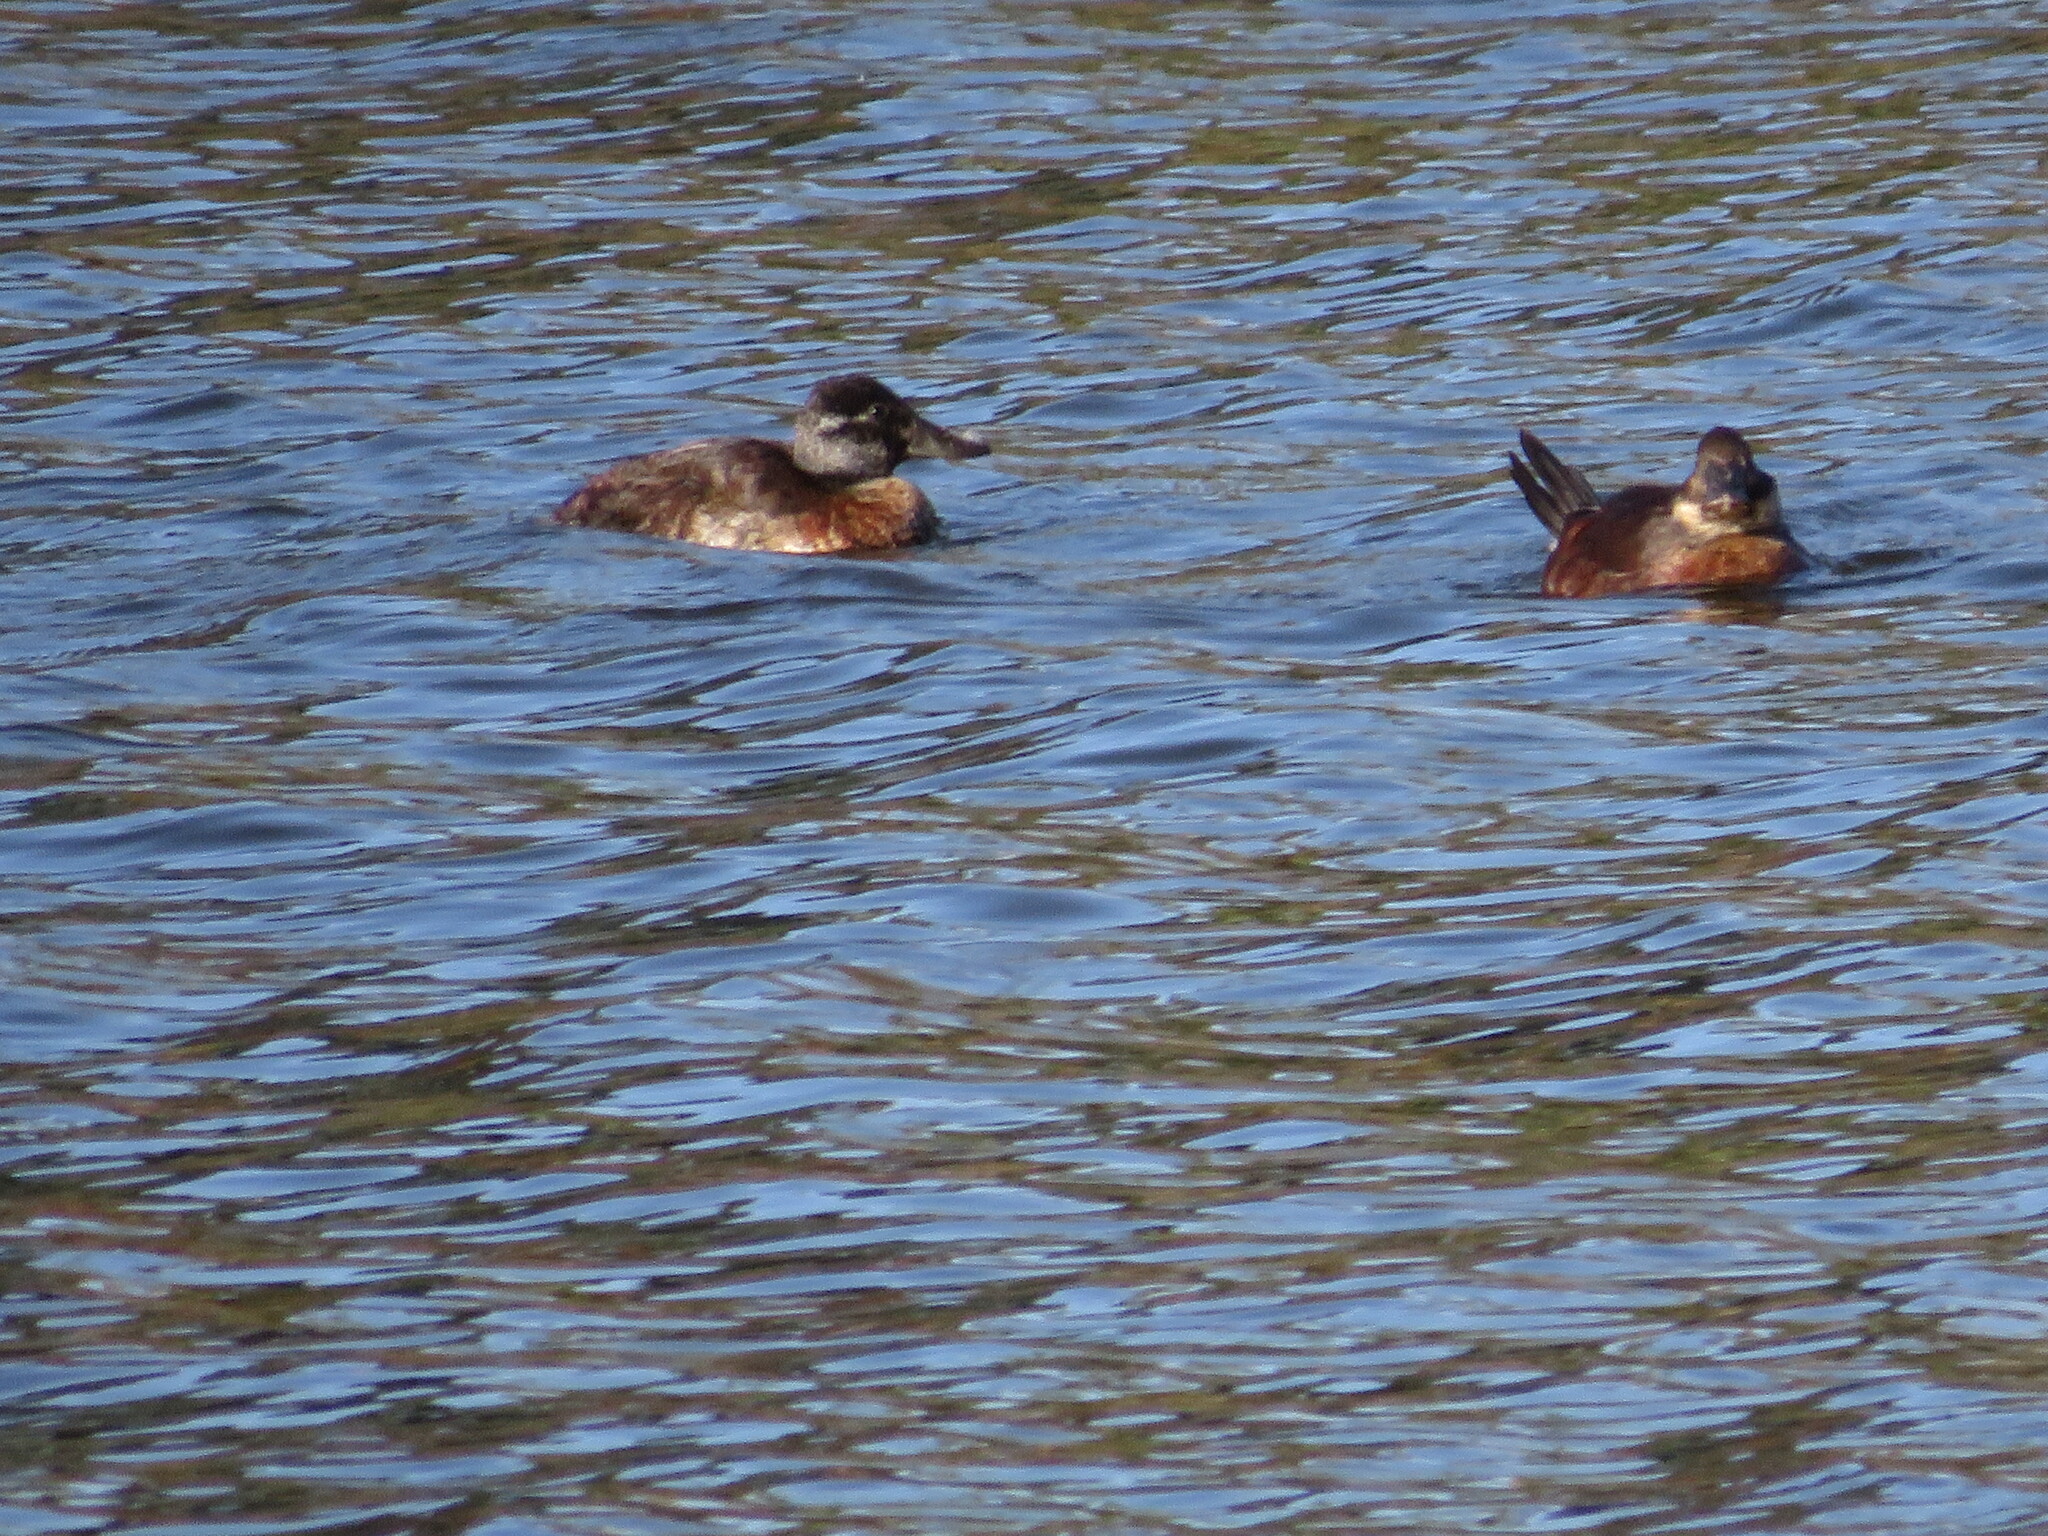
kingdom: Animalia
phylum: Chordata
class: Aves
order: Anseriformes
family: Anatidae
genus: Oxyura
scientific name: Oxyura vittata
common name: Lake duck
